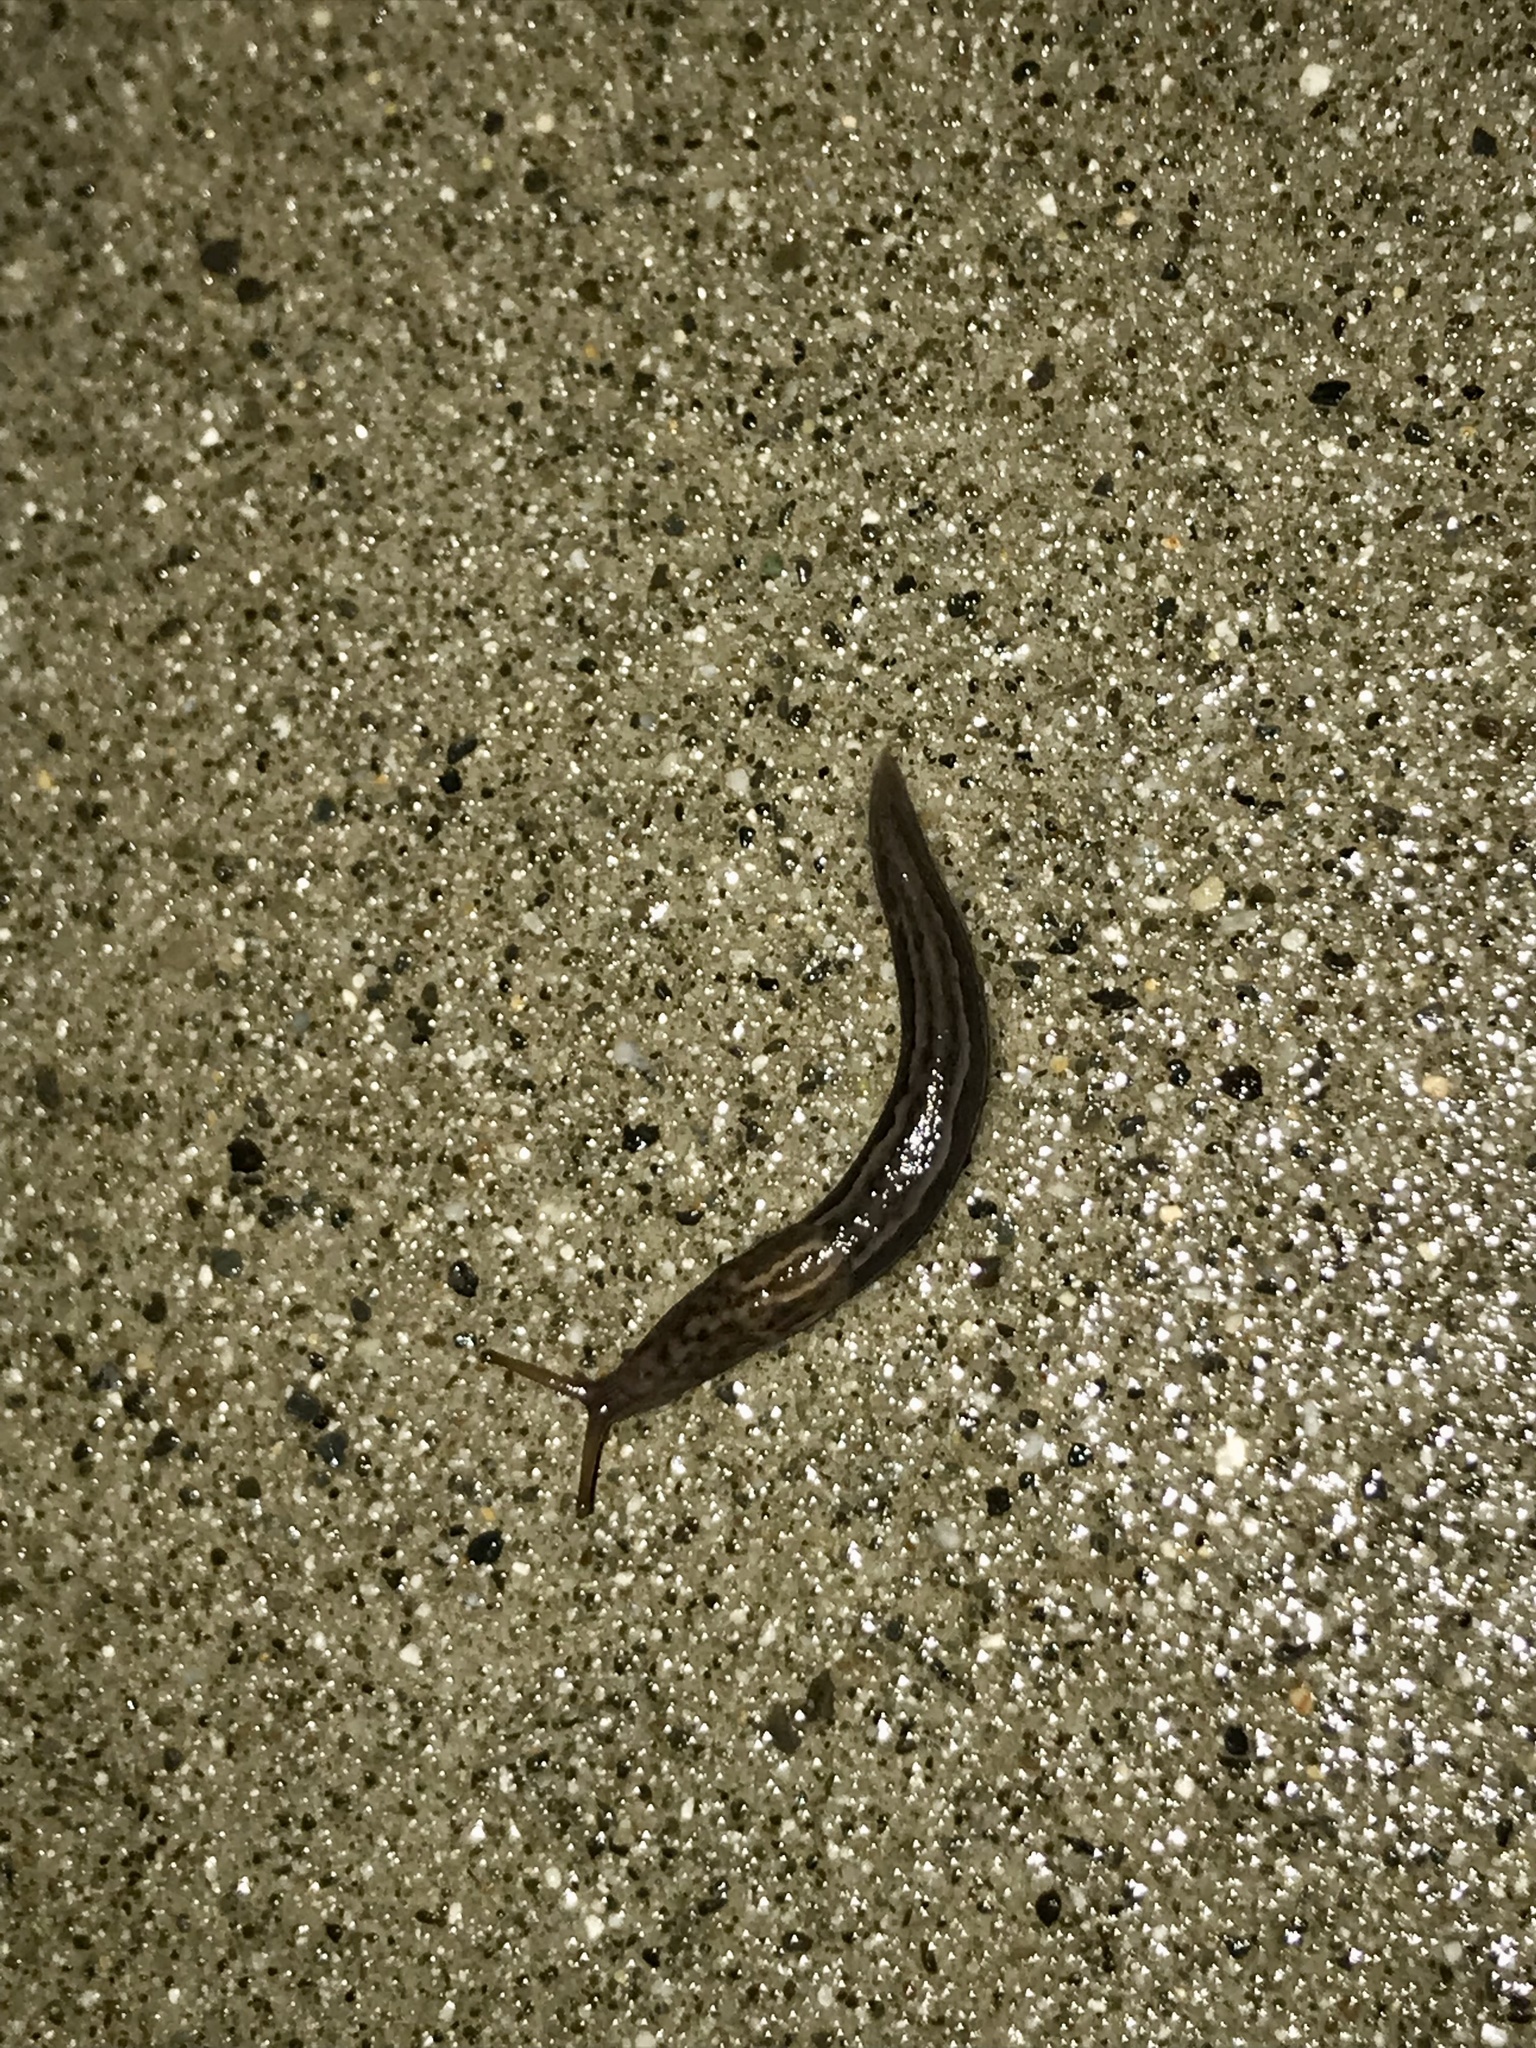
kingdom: Animalia
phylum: Mollusca
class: Gastropoda
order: Stylommatophora
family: Limacidae
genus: Limax
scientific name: Limax maximus
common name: Great grey slug
